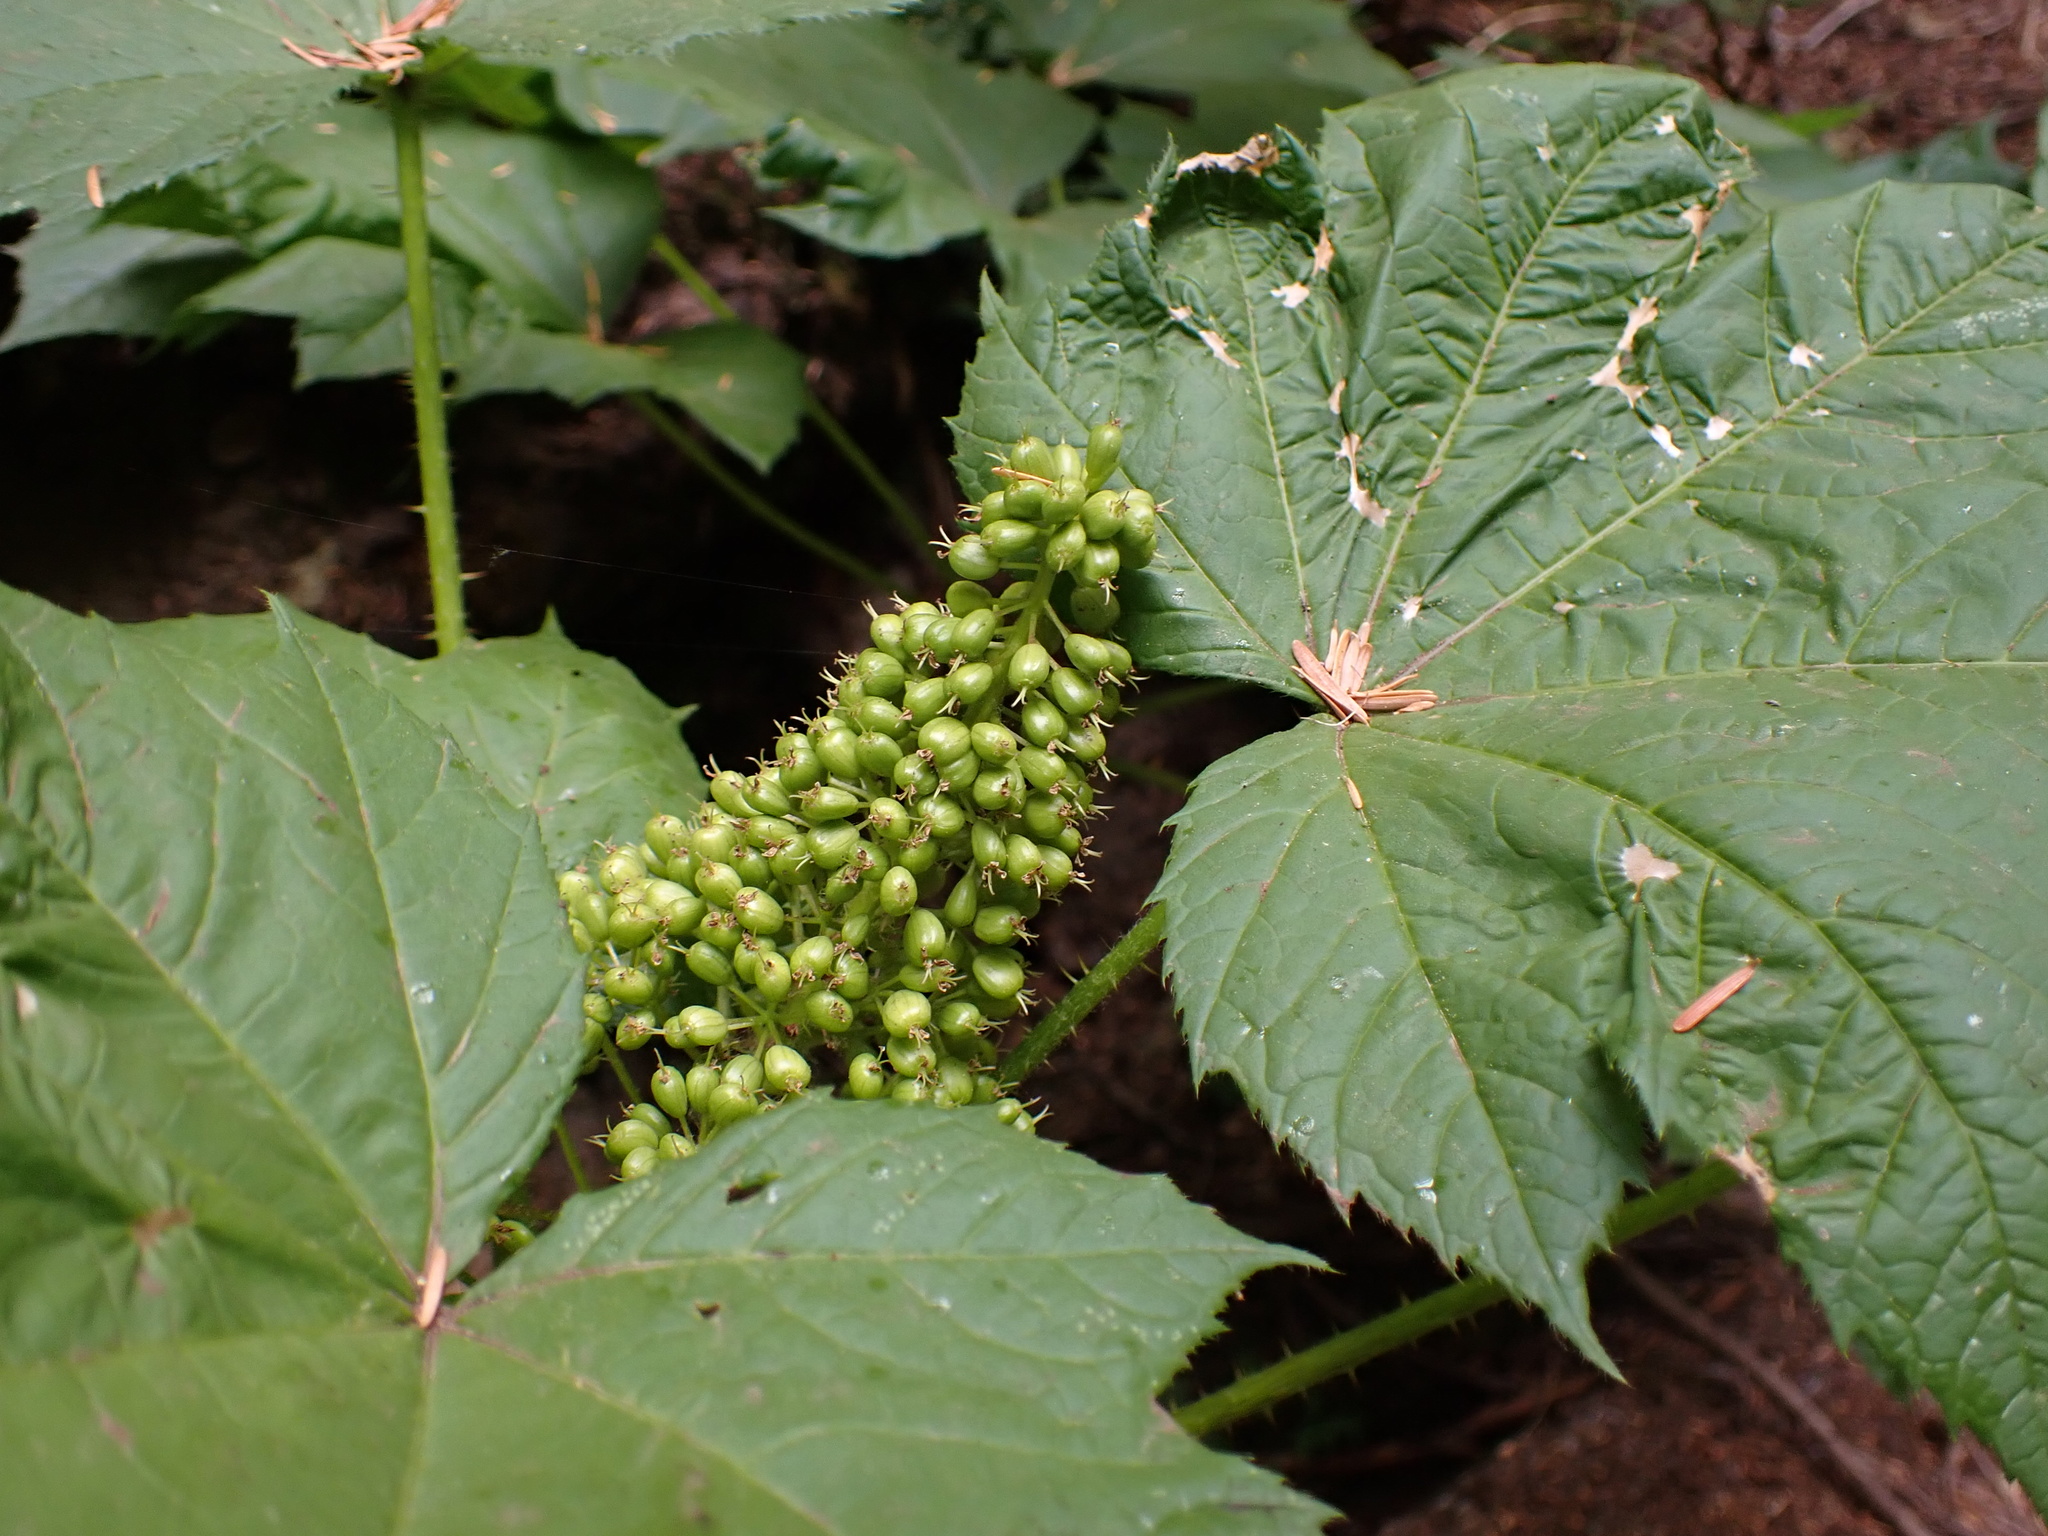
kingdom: Plantae
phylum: Tracheophyta
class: Magnoliopsida
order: Apiales
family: Araliaceae
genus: Oplopanax
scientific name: Oplopanax horridus
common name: Devil's walking-stick
